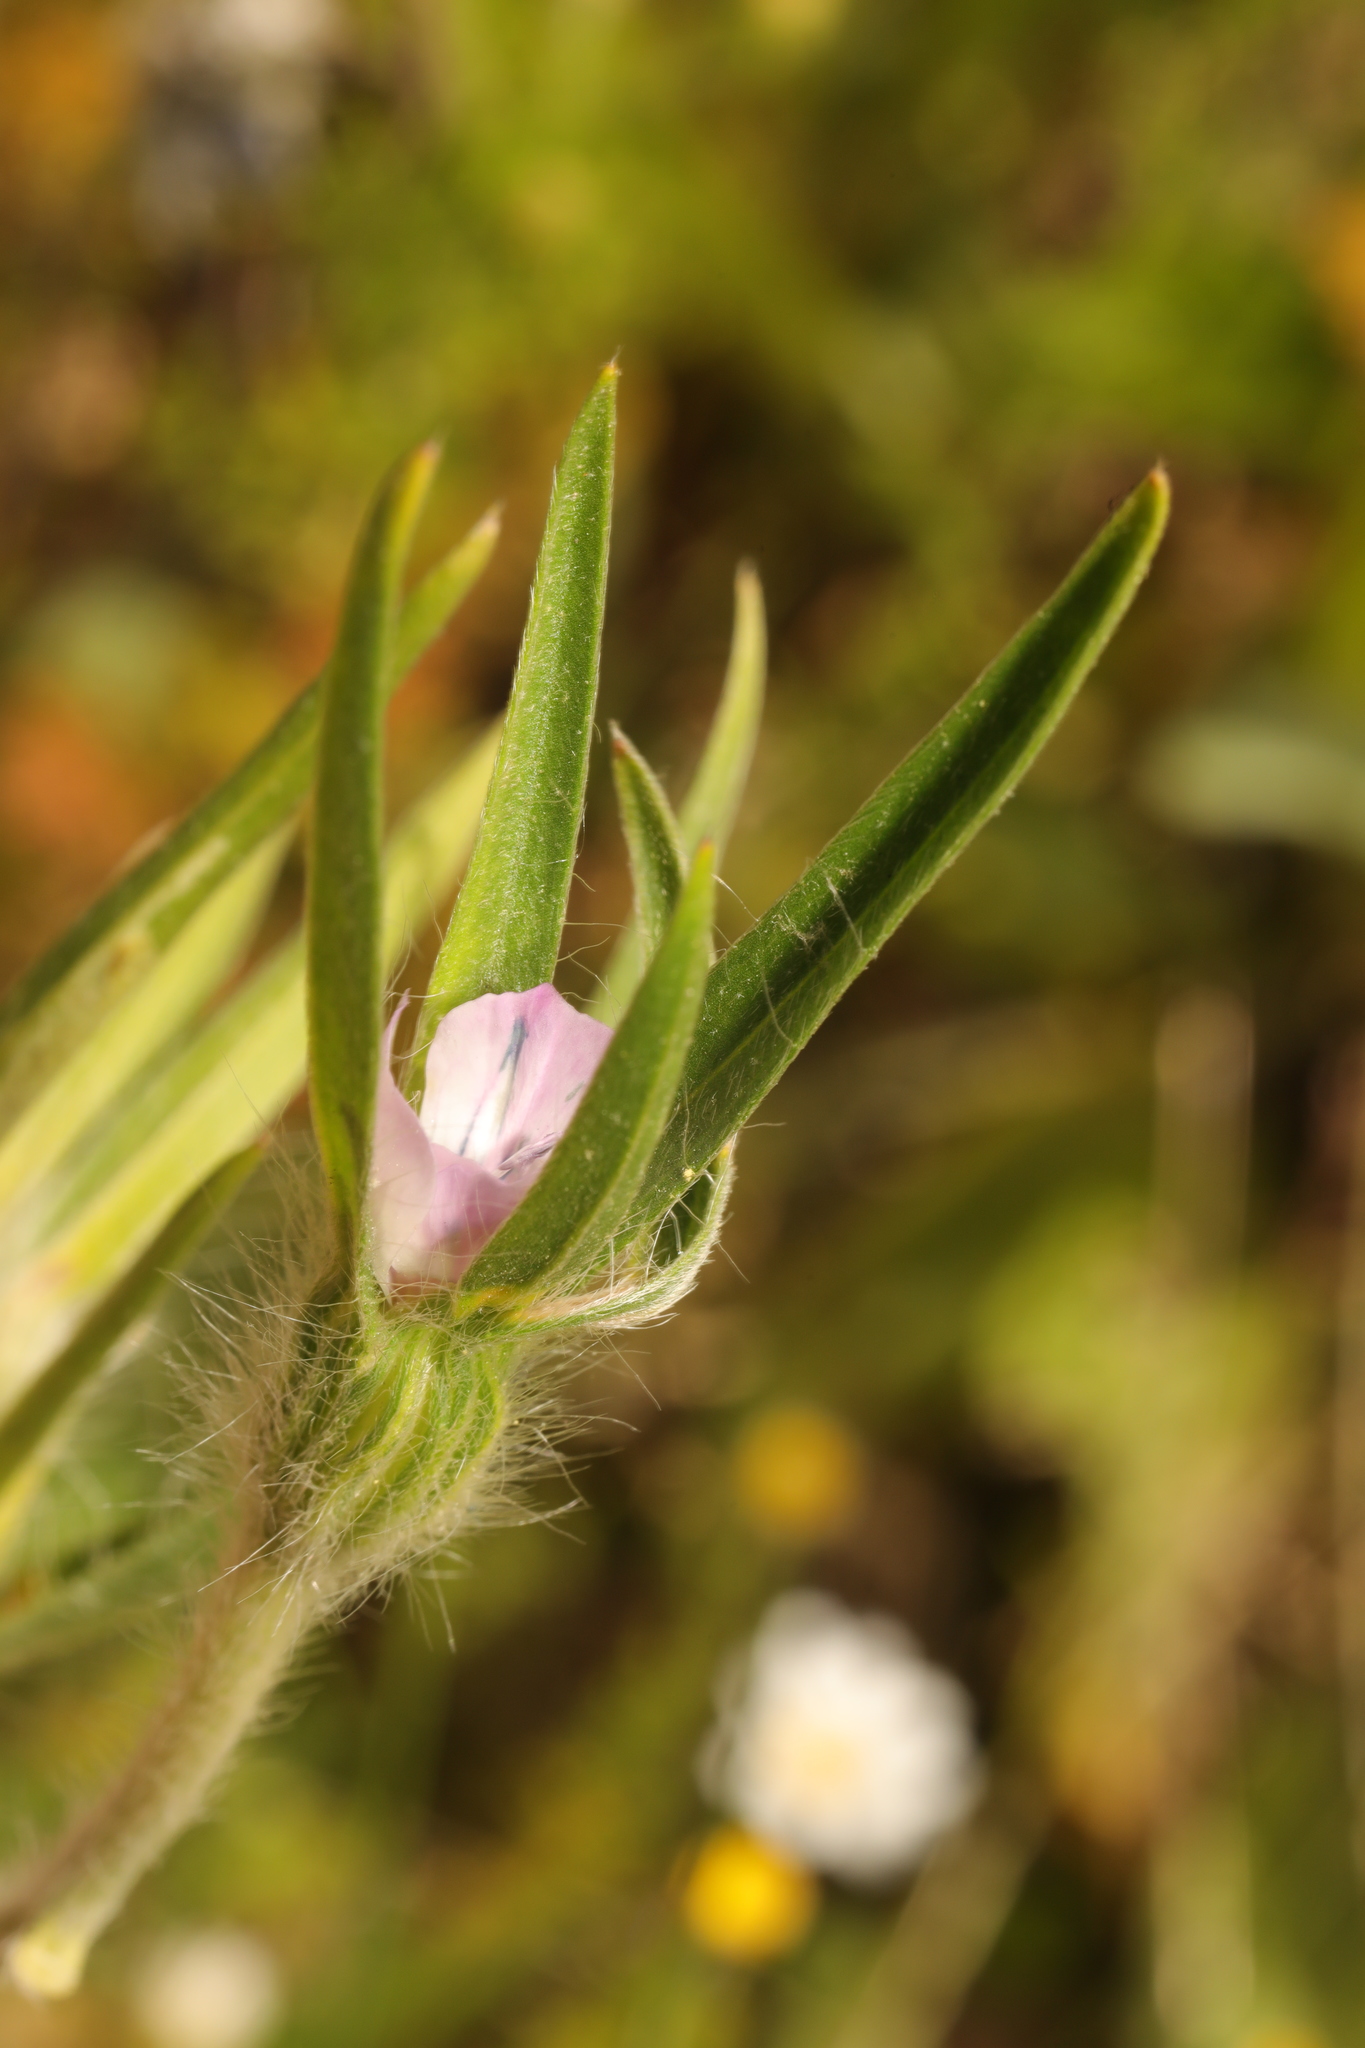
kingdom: Plantae
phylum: Tracheophyta
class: Magnoliopsida
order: Caryophyllales
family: Caryophyllaceae
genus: Agrostemma
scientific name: Agrostemma githago
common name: Common corncockle
